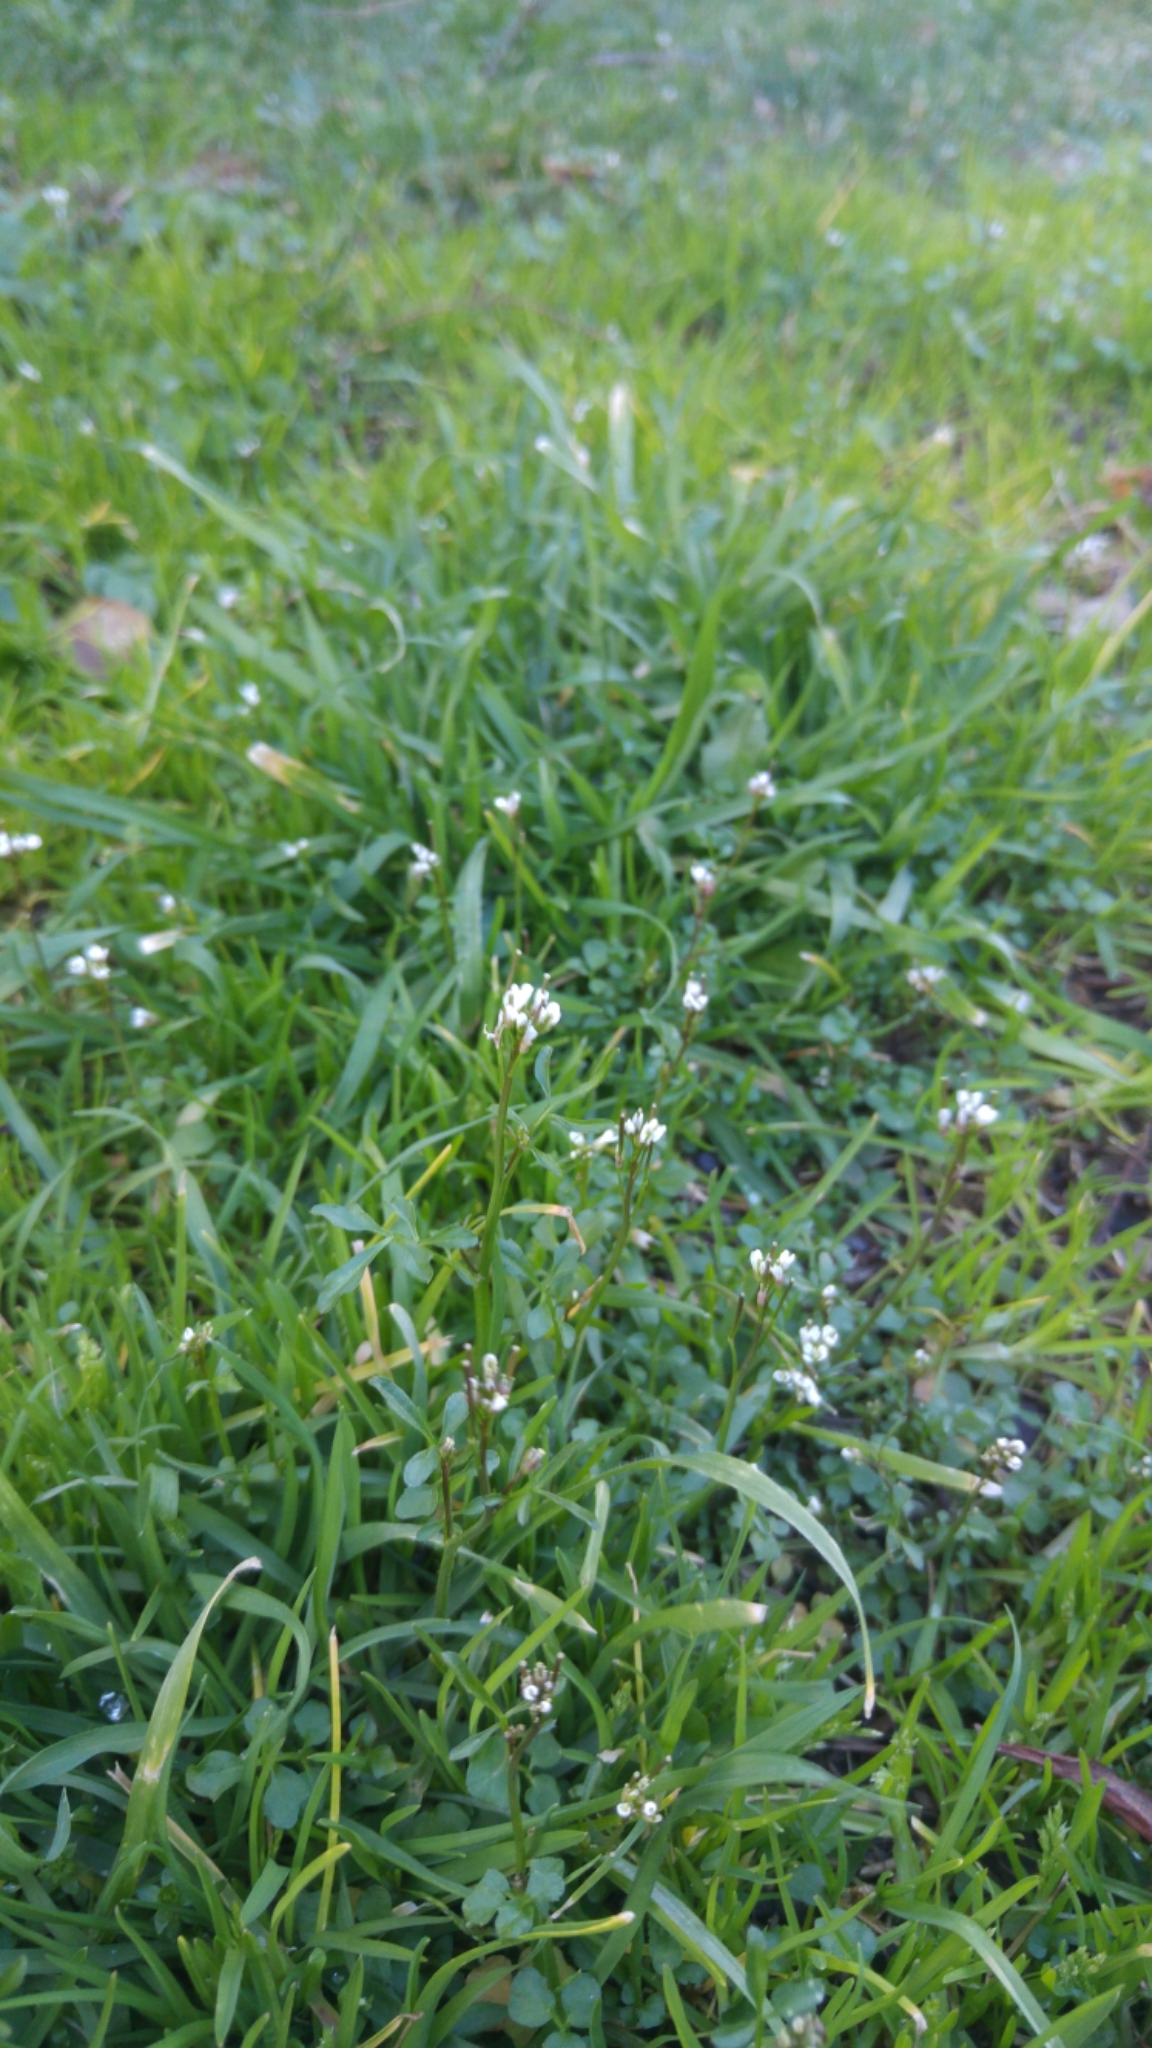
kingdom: Plantae
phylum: Tracheophyta
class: Magnoliopsida
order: Brassicales
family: Brassicaceae
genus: Cardamine
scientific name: Cardamine hirsuta
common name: Hairy bittercress
